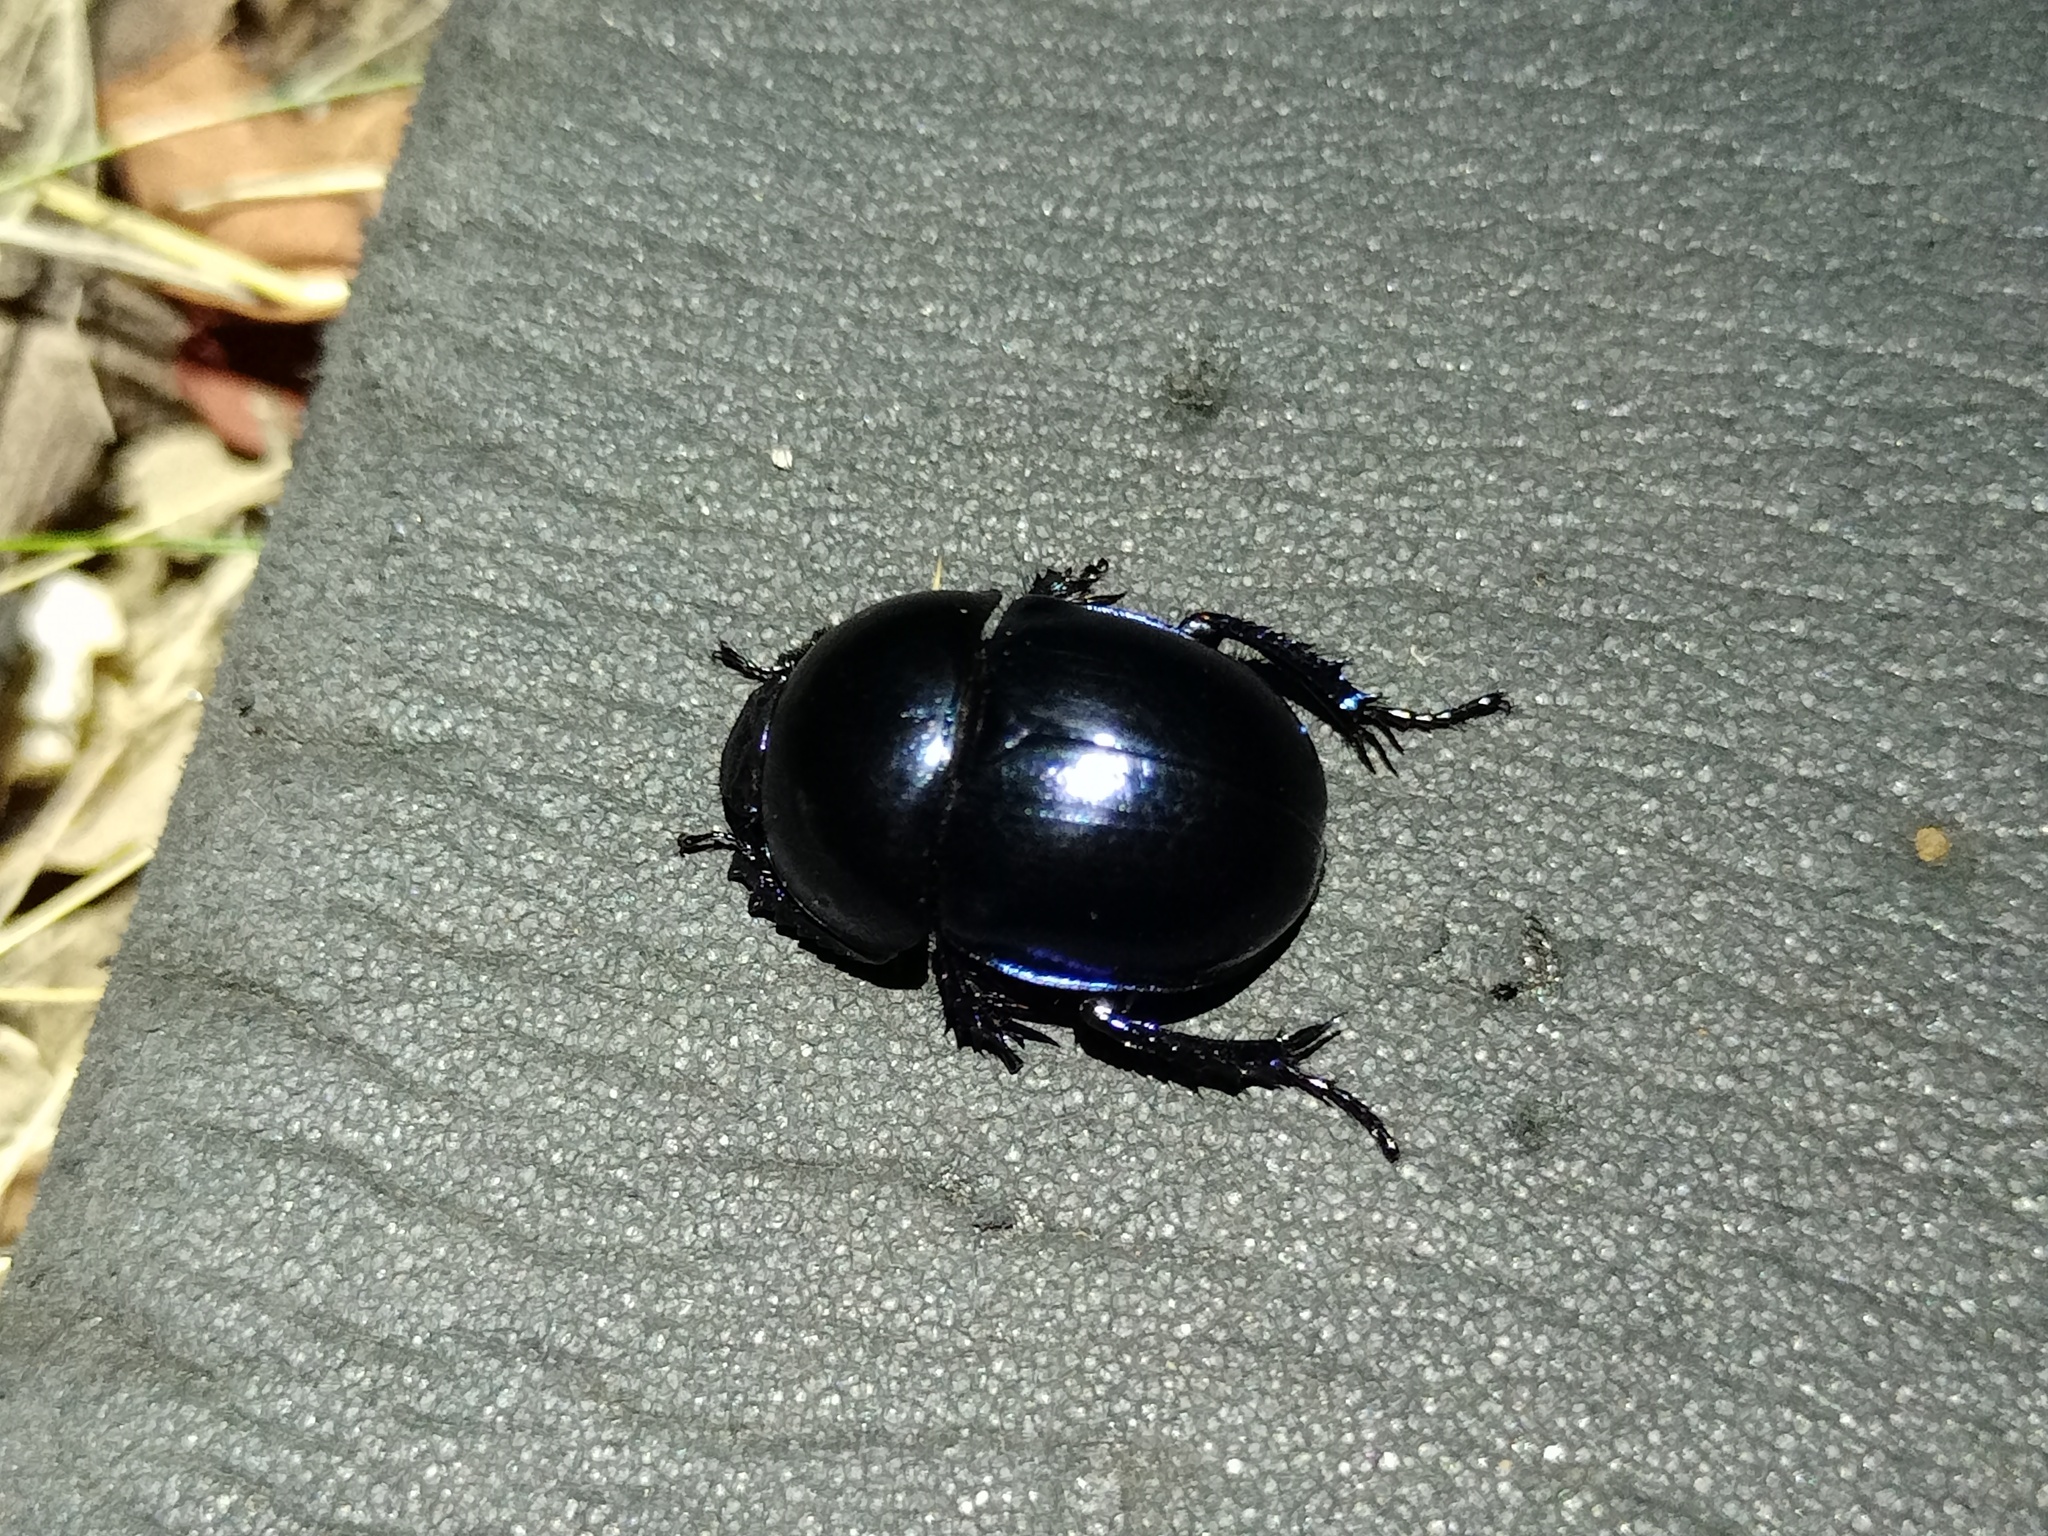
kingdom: Animalia
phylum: Arthropoda
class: Insecta
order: Coleoptera
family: Geotrupidae
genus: Trypocopris
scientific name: Trypocopris vernalis
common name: Spring dumbledor
